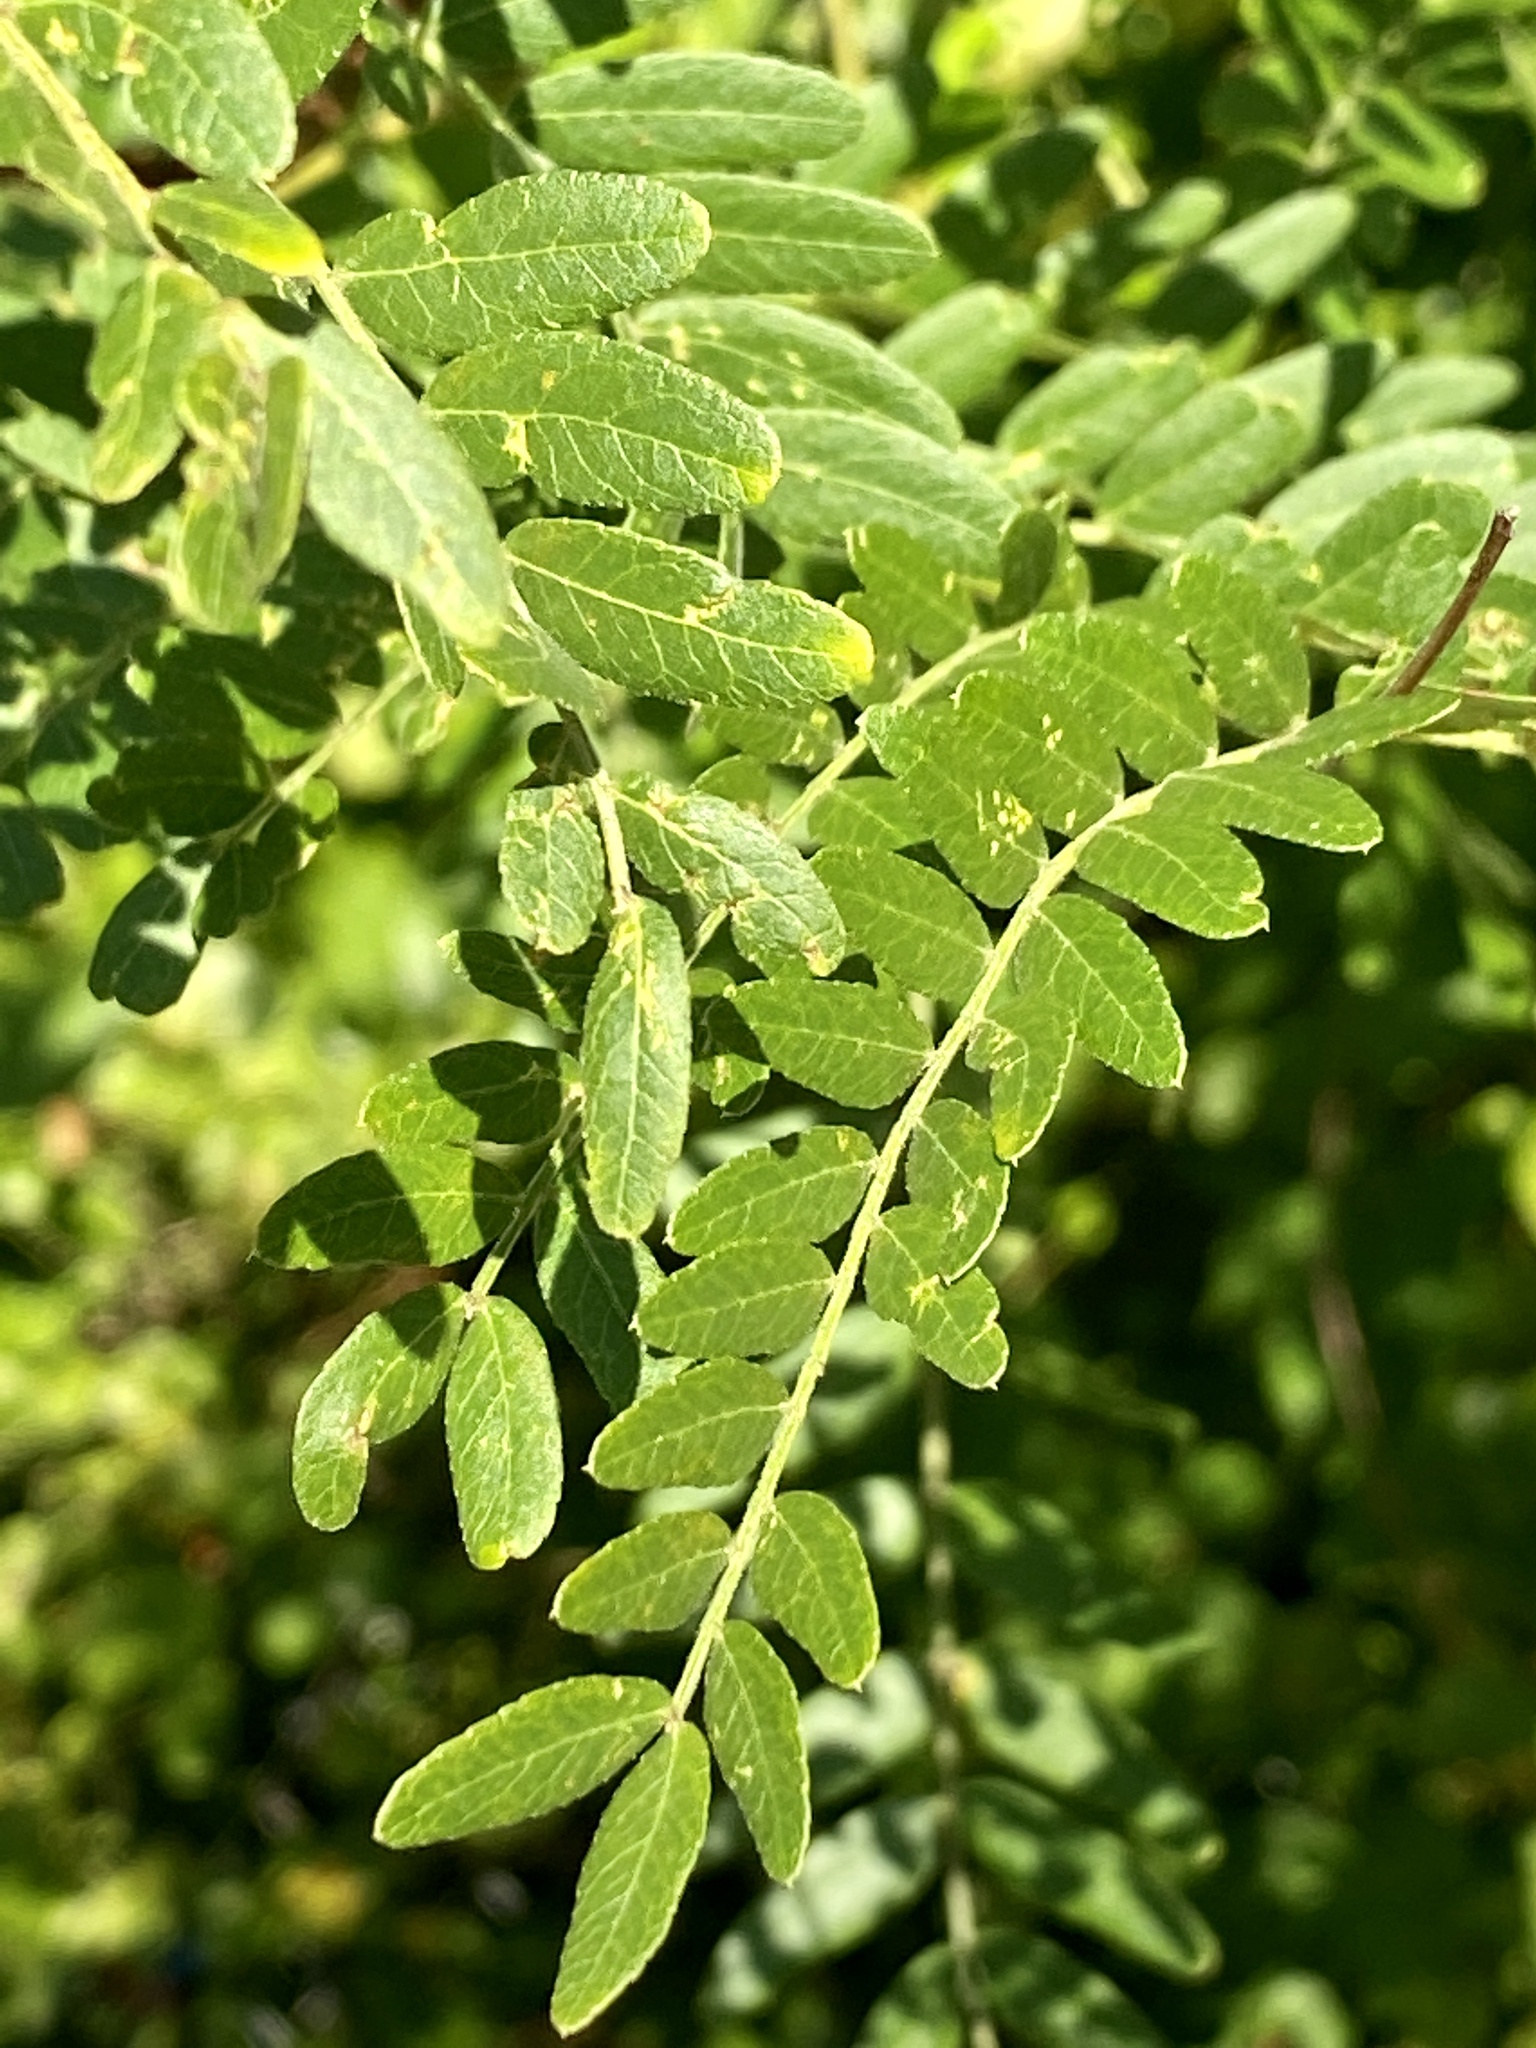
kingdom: Plantae
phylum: Tracheophyta
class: Magnoliopsida
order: Fabales
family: Fabaceae
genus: Gleditsia
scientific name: Gleditsia triacanthos
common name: Common honeylocust
